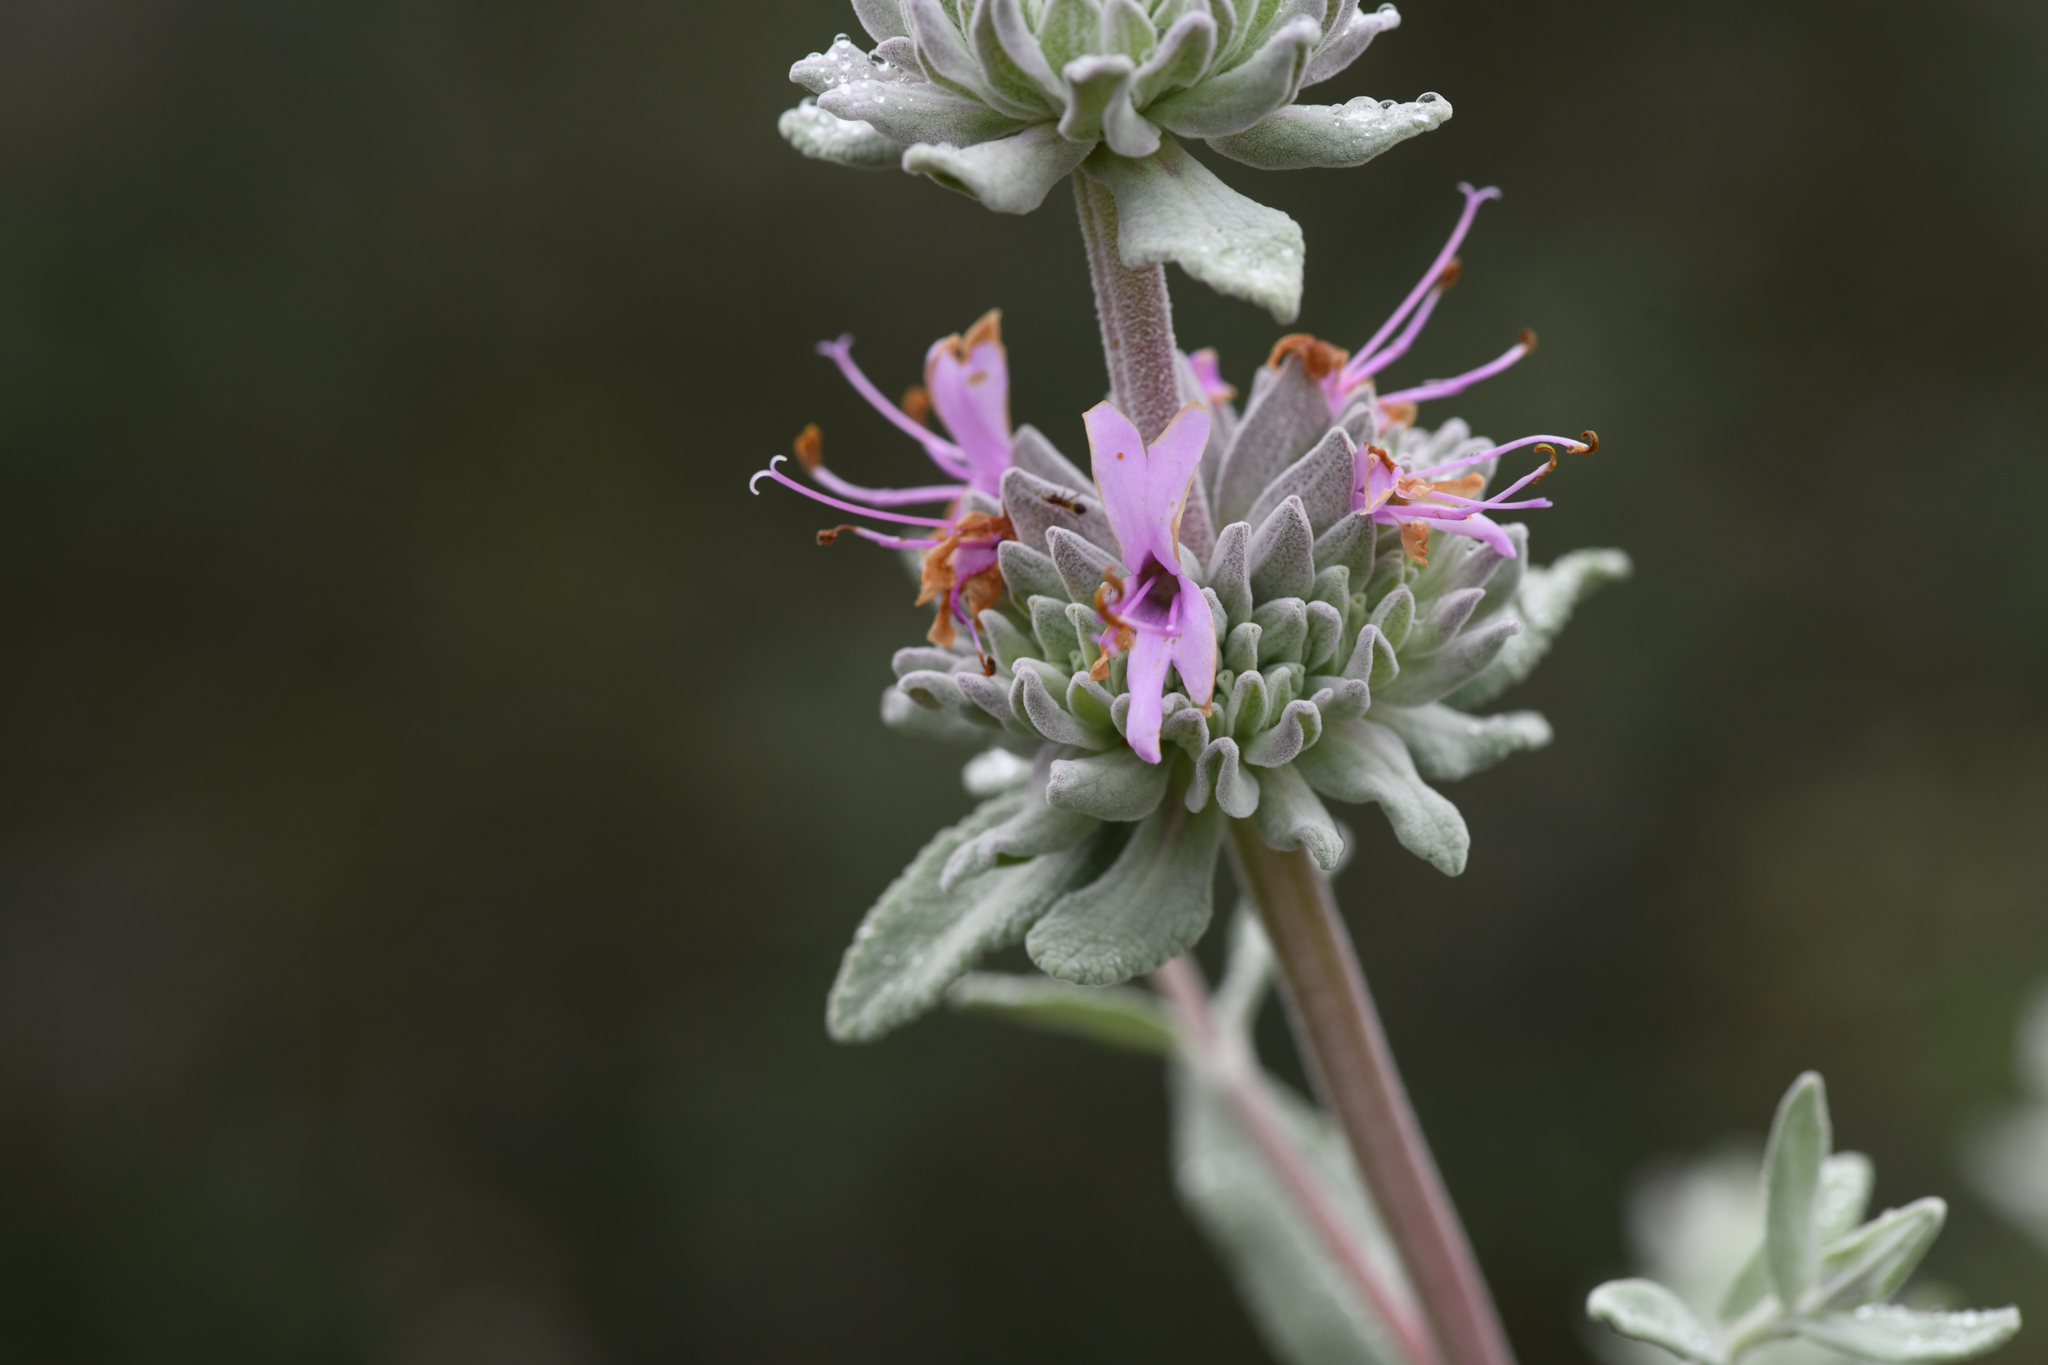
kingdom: Plantae
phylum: Tracheophyta
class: Magnoliopsida
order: Lamiales
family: Lamiaceae
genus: Salvia
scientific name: Salvia leucophylla
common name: Purple sage
